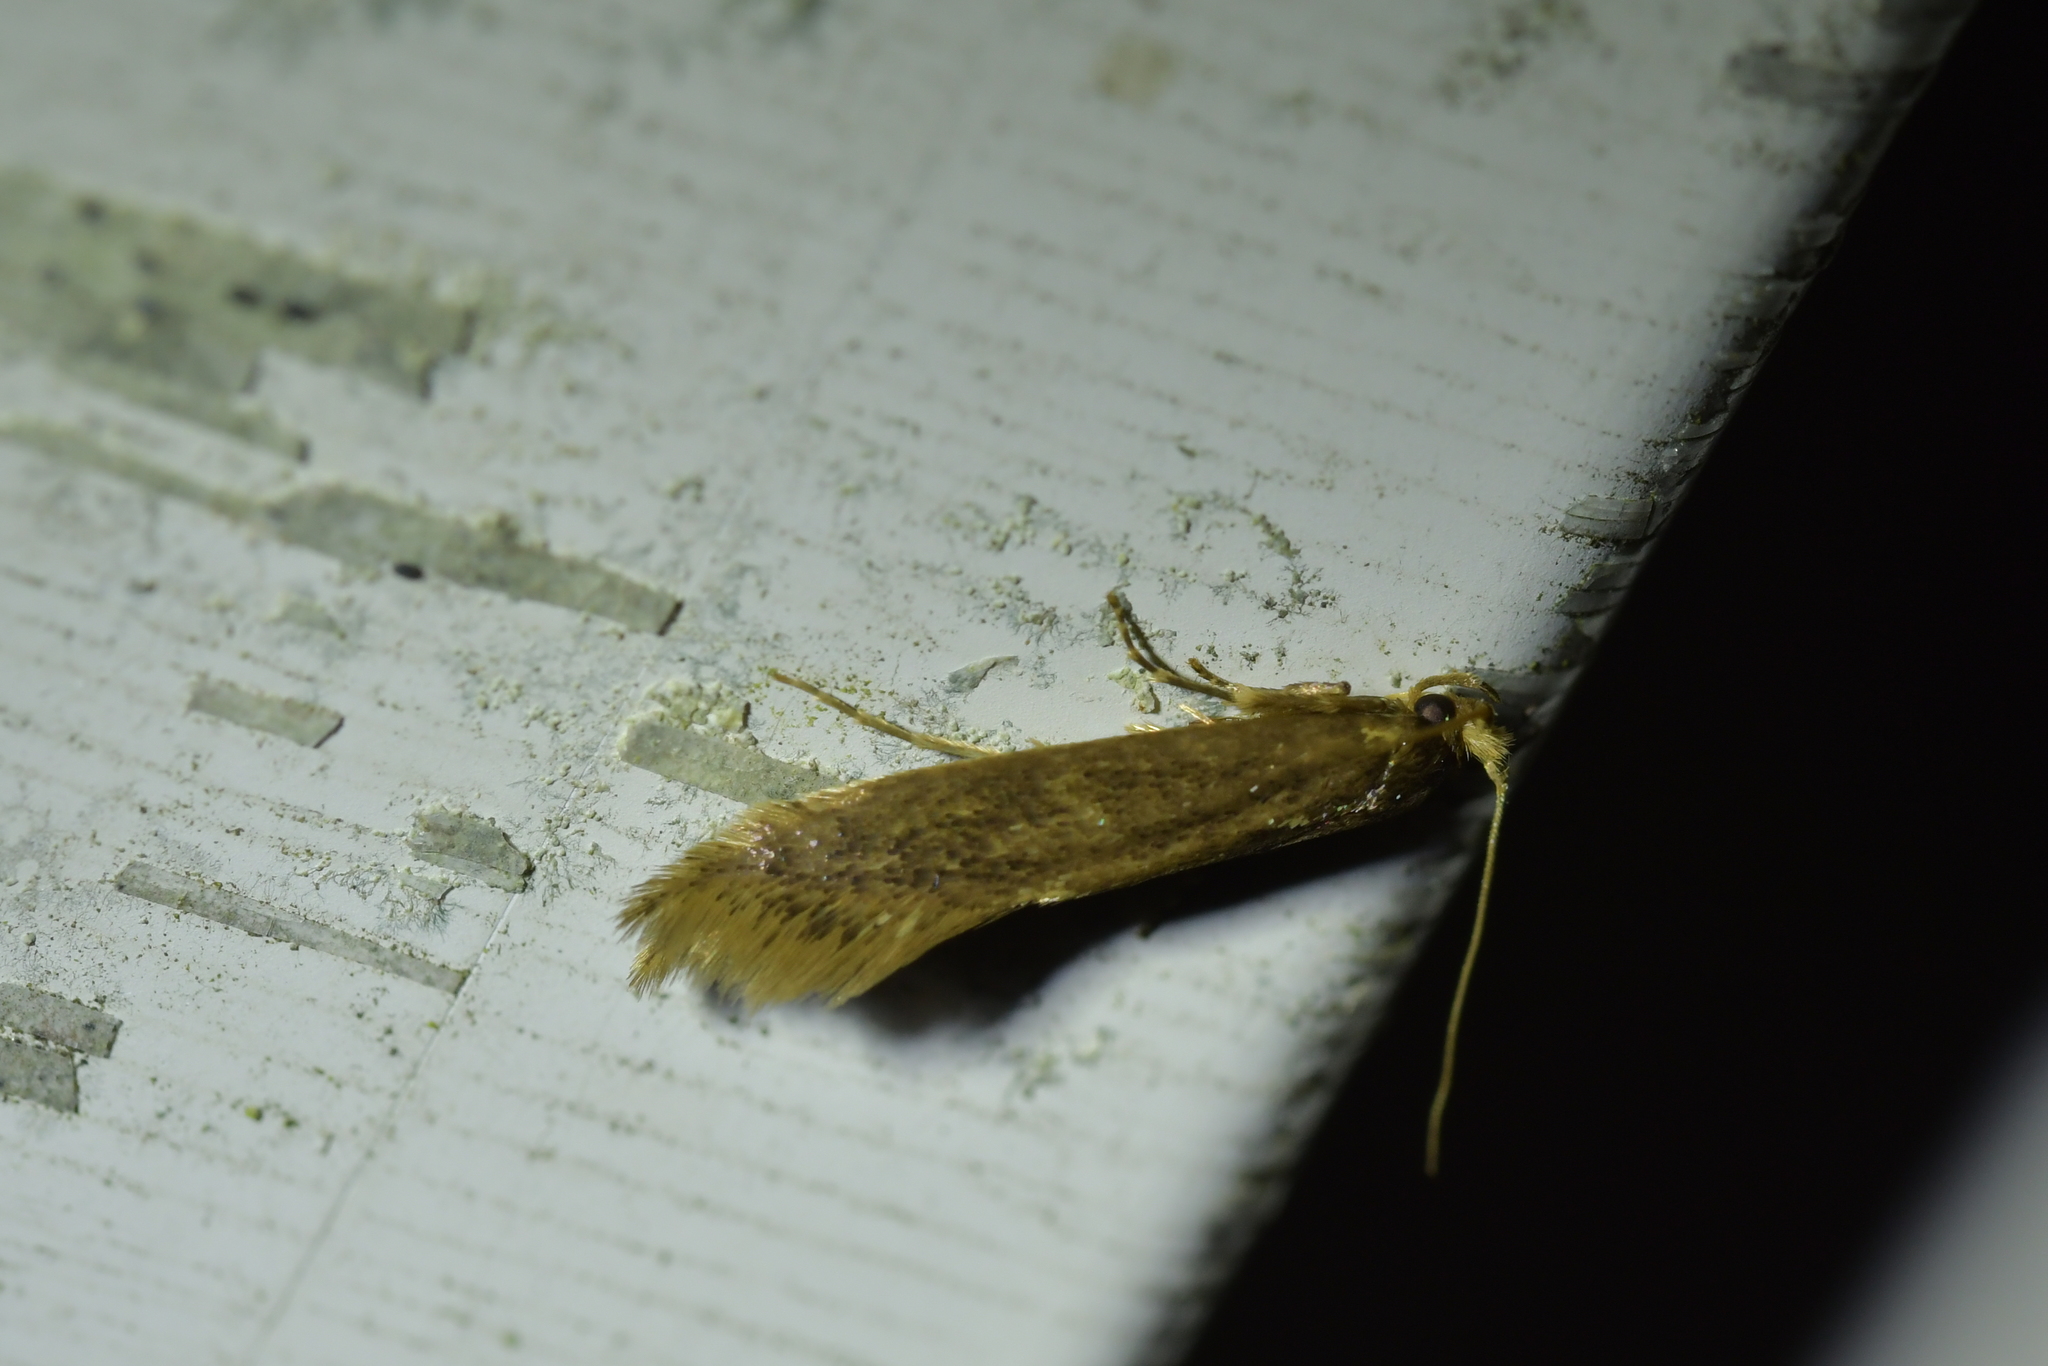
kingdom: Animalia
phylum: Arthropoda
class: Insecta
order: Lepidoptera
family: Tineidae
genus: Opogona
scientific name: Opogona omoscopa
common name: Moth
